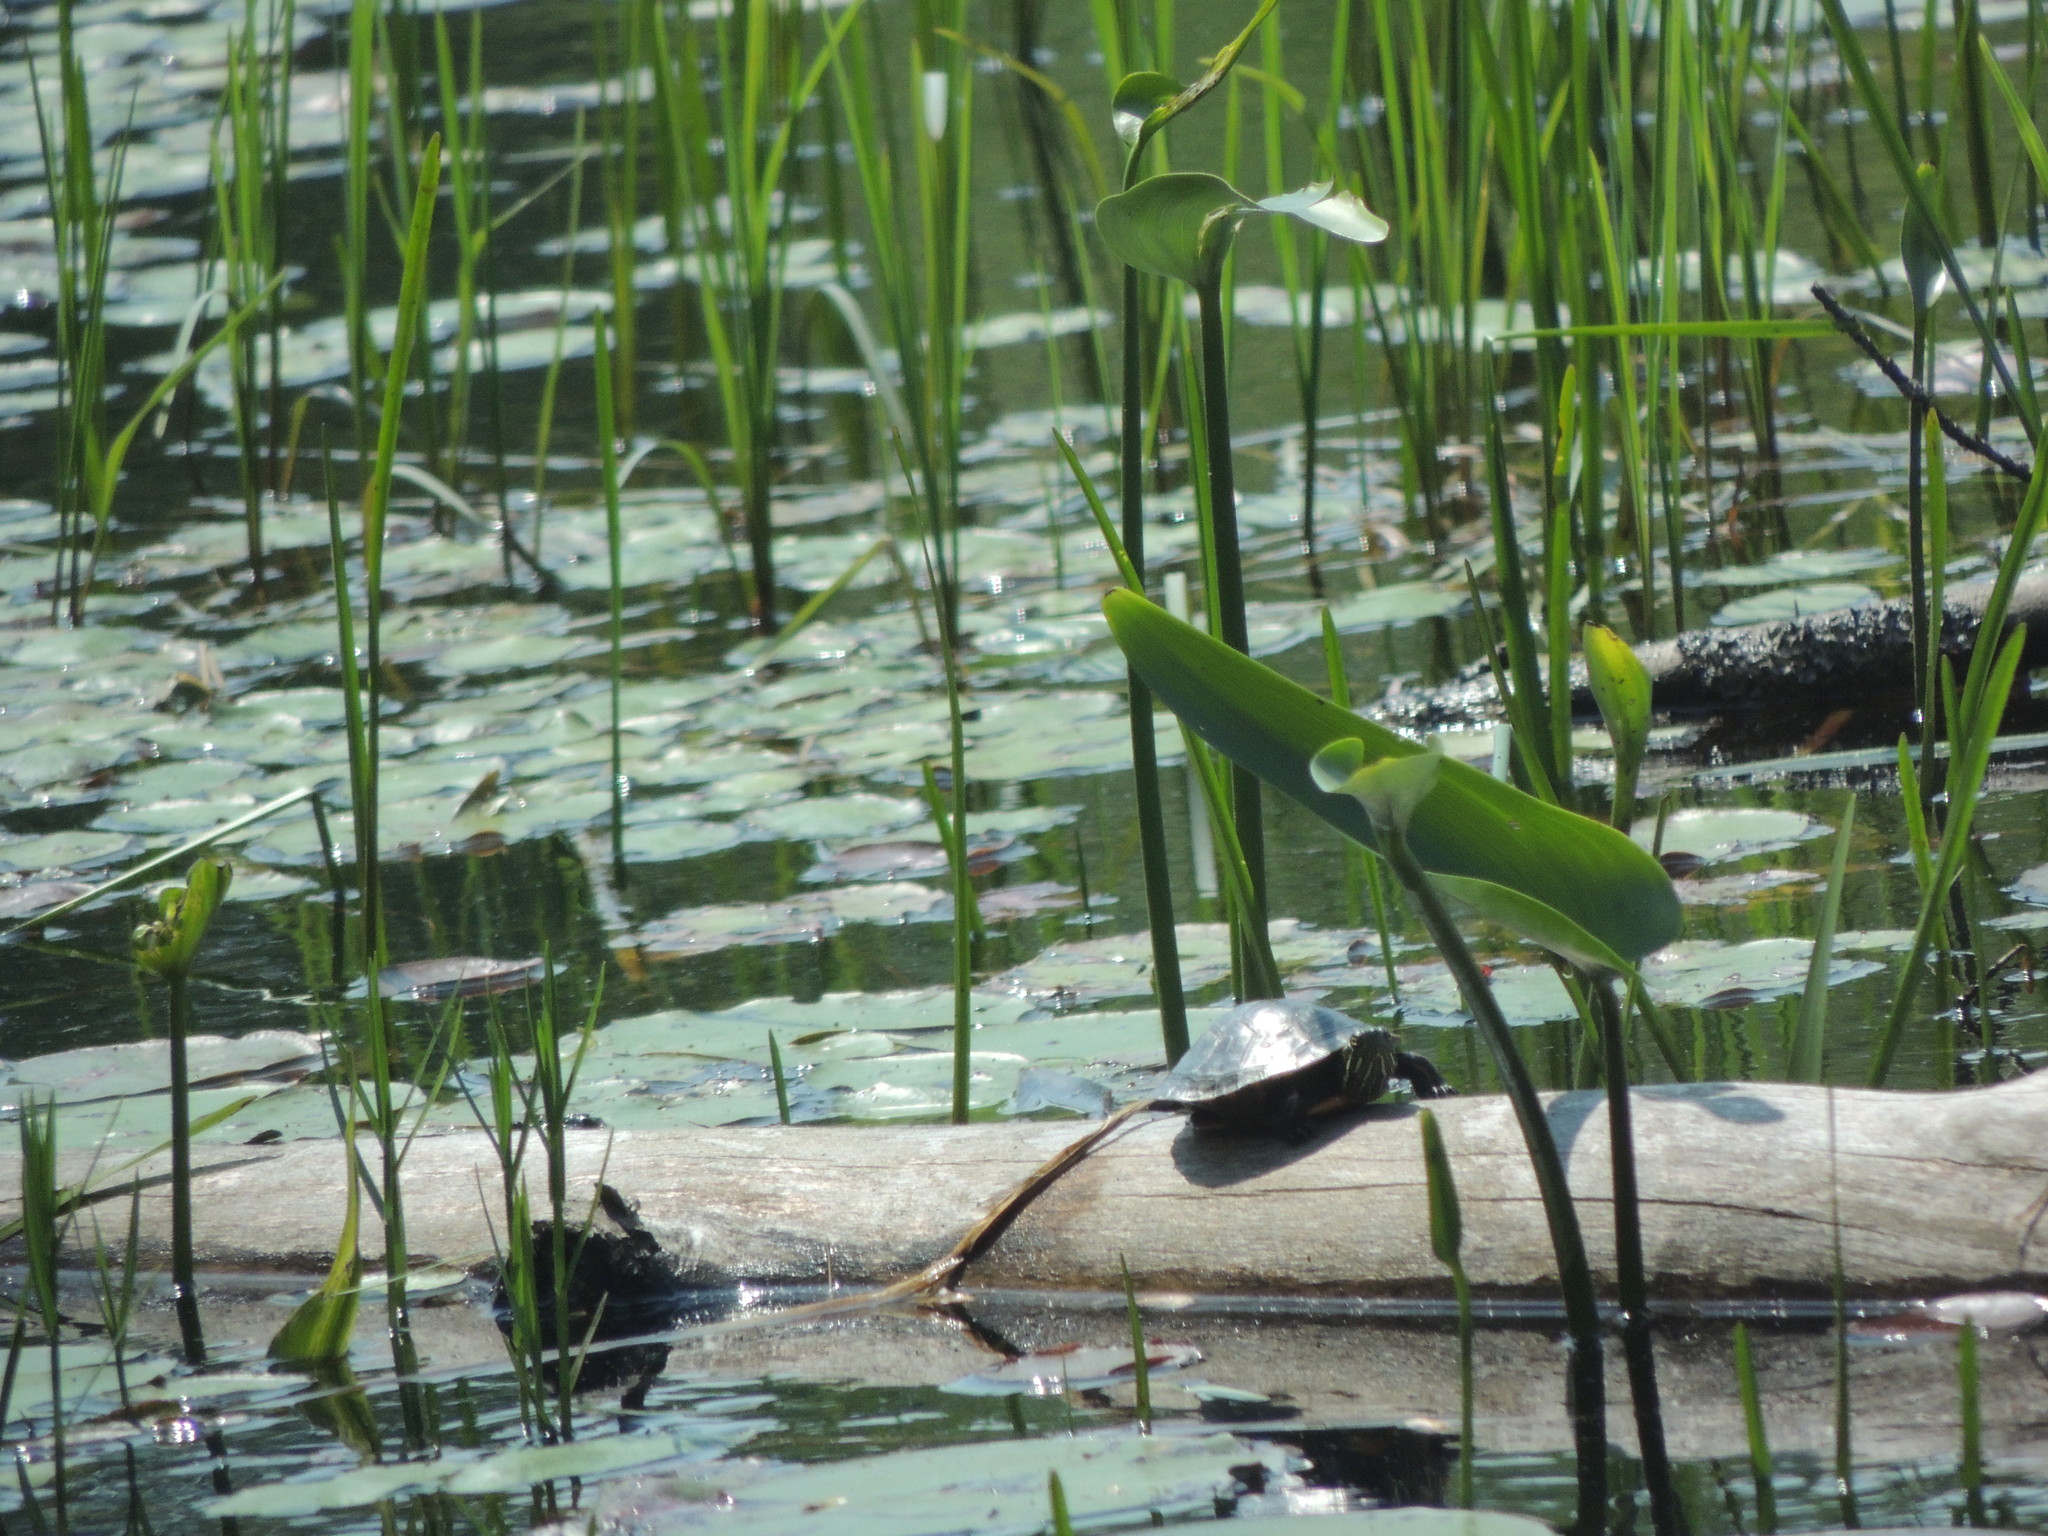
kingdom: Animalia
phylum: Chordata
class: Testudines
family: Emydidae
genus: Chrysemys
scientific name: Chrysemys picta
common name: Painted turtle
